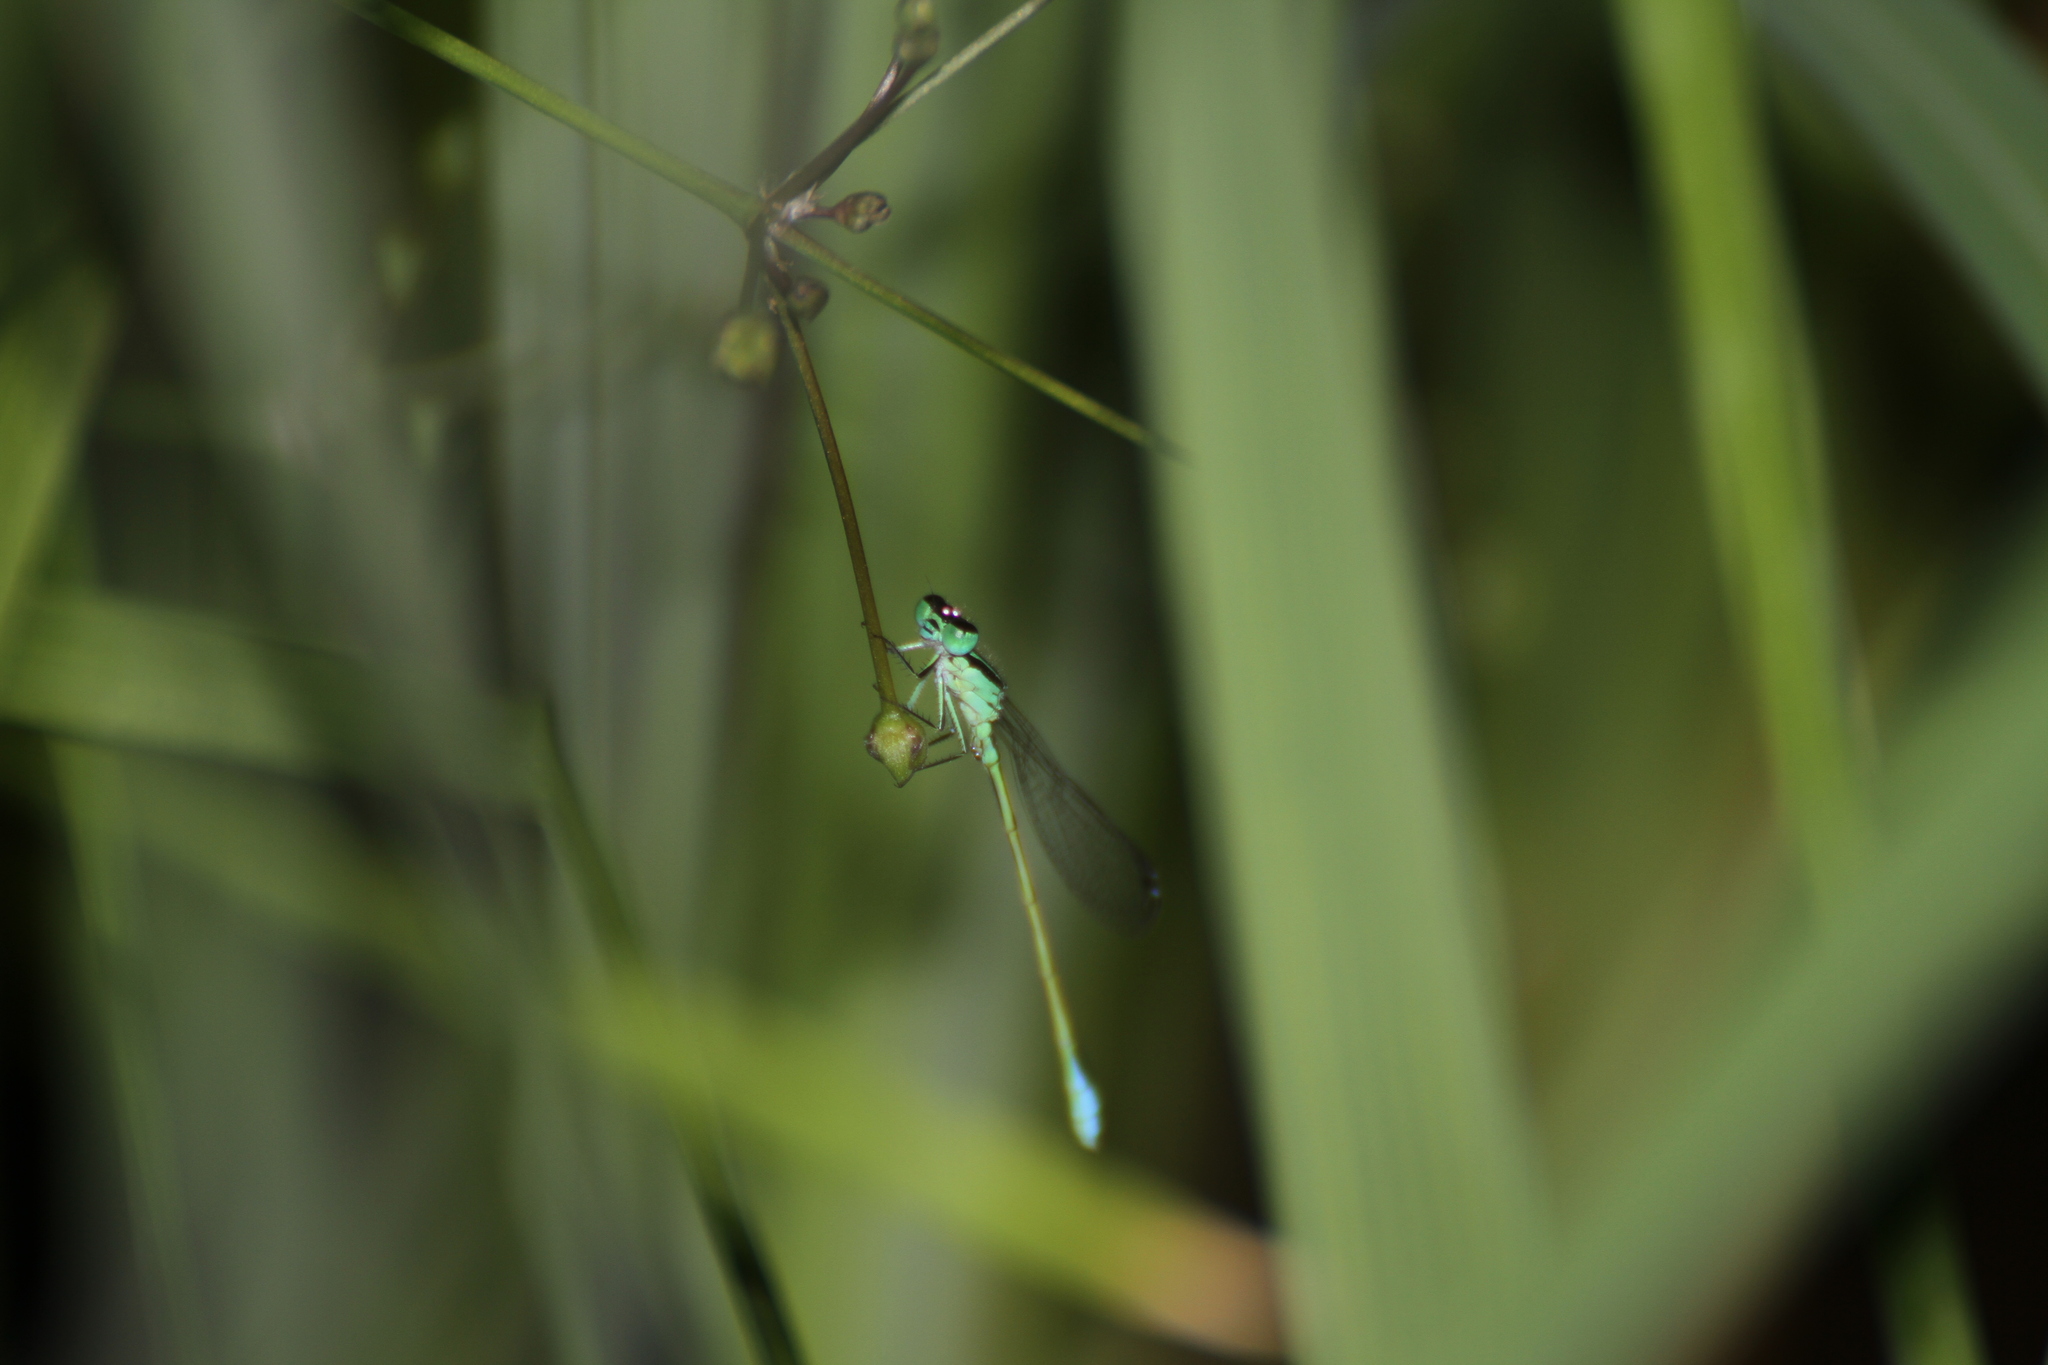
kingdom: Animalia
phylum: Arthropoda
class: Insecta
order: Odonata
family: Coenagrionidae
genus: Ischnura
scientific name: Ischnura elegans
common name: Blue-tailed damselfly
